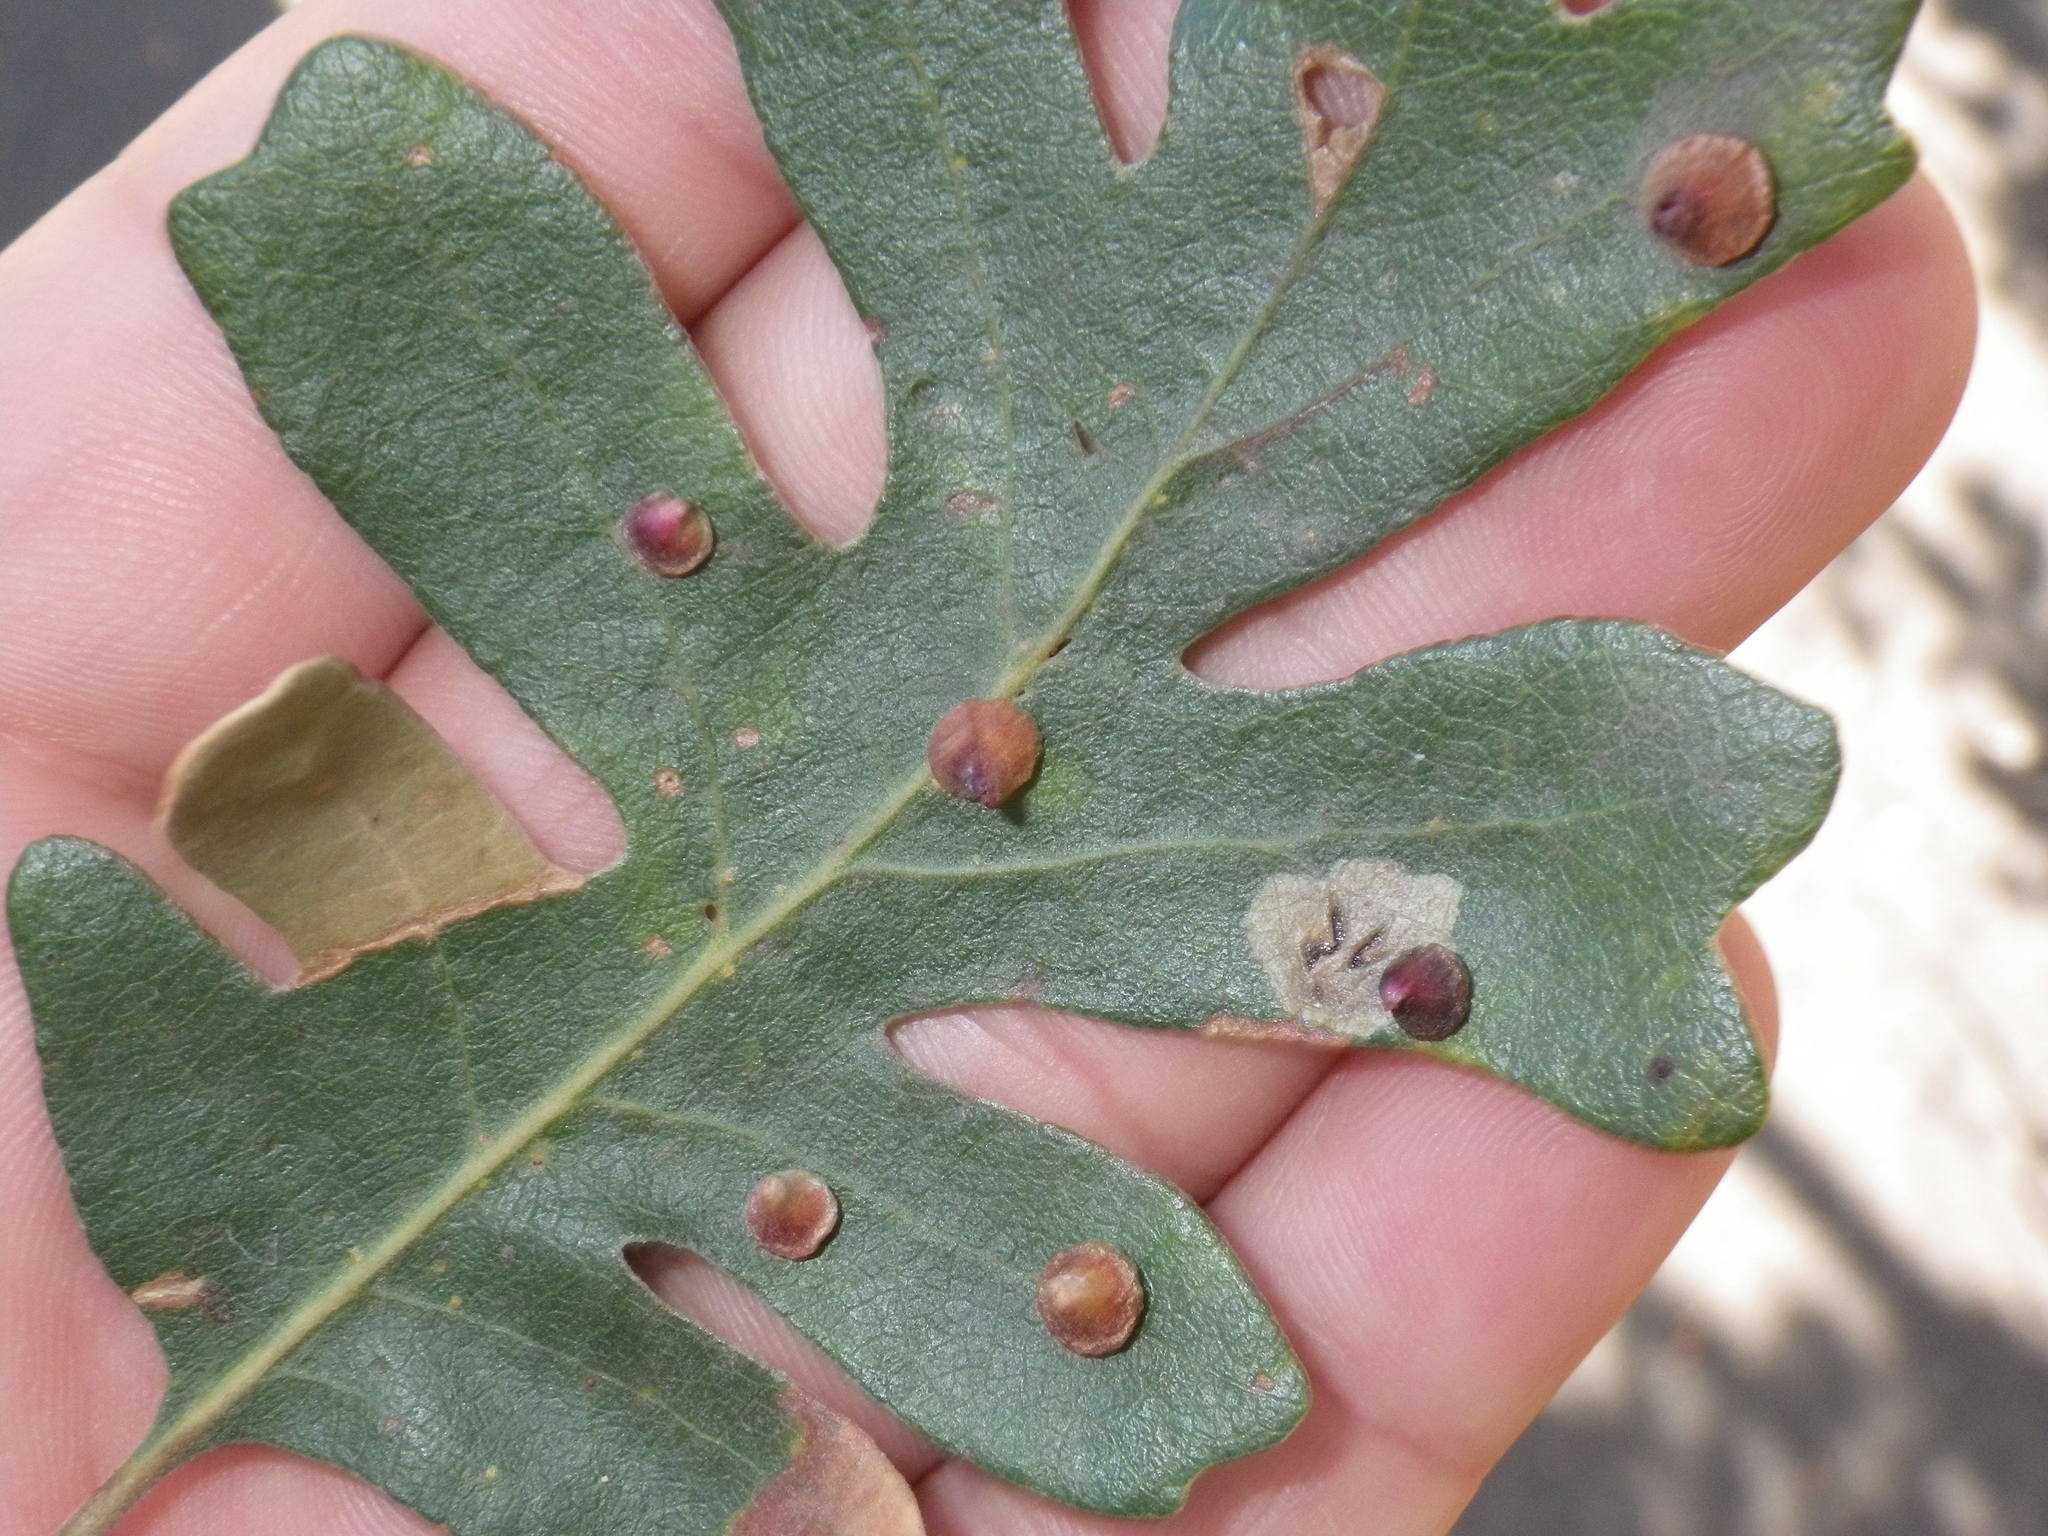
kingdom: Animalia
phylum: Arthropoda
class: Insecta
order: Hymenoptera
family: Cynipidae
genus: Andricus
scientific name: Andricus
